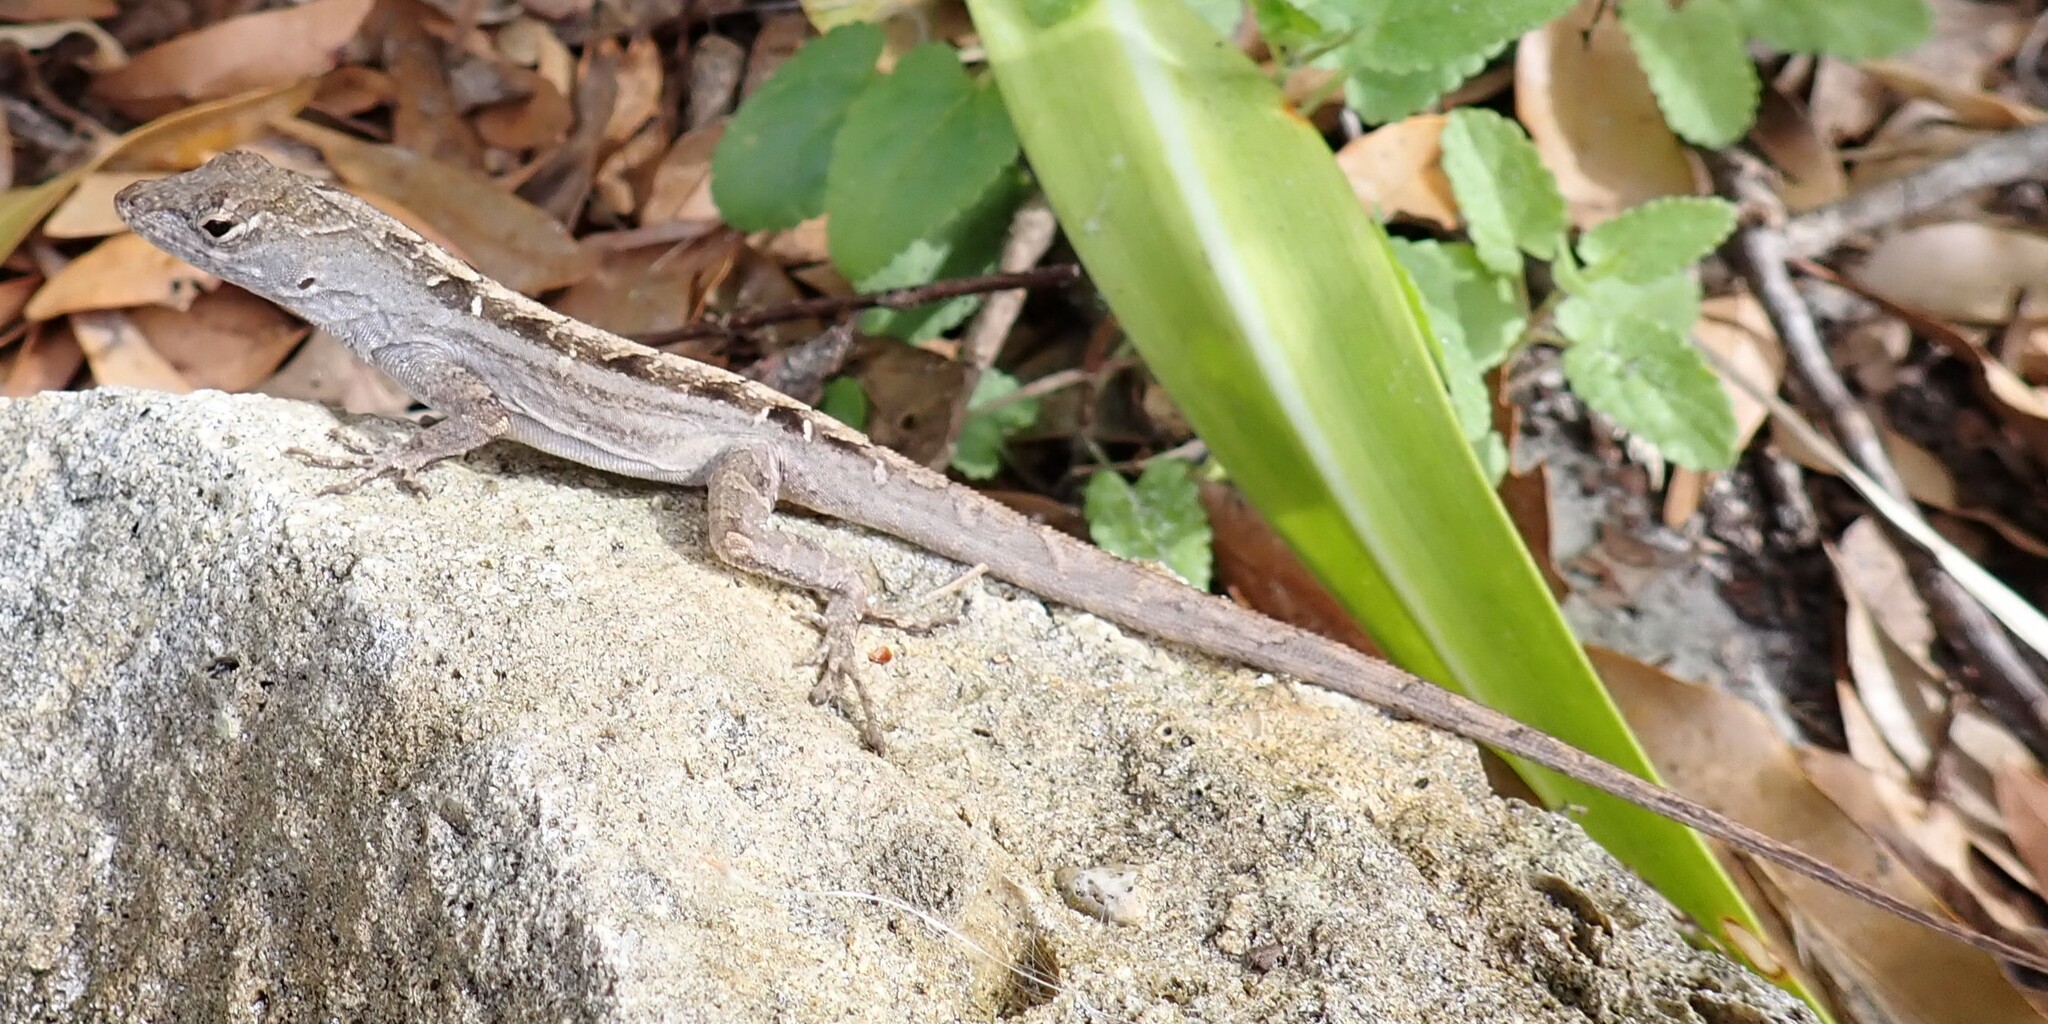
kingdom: Animalia
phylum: Chordata
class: Squamata
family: Dactyloidae
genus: Anolis
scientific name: Anolis sagrei
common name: Brown anole
